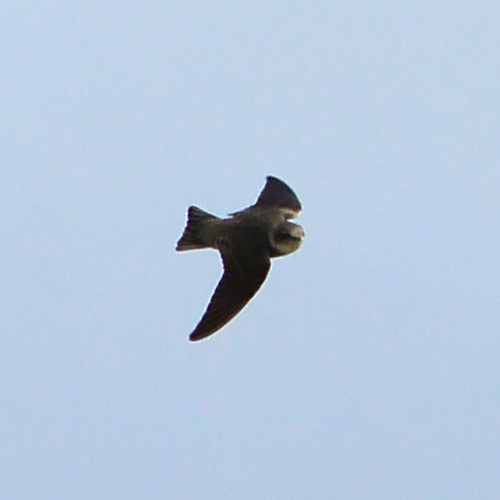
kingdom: Animalia
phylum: Chordata
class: Aves
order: Passeriformes
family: Hirundinidae
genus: Riparia
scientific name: Riparia riparia
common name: Sand martin
